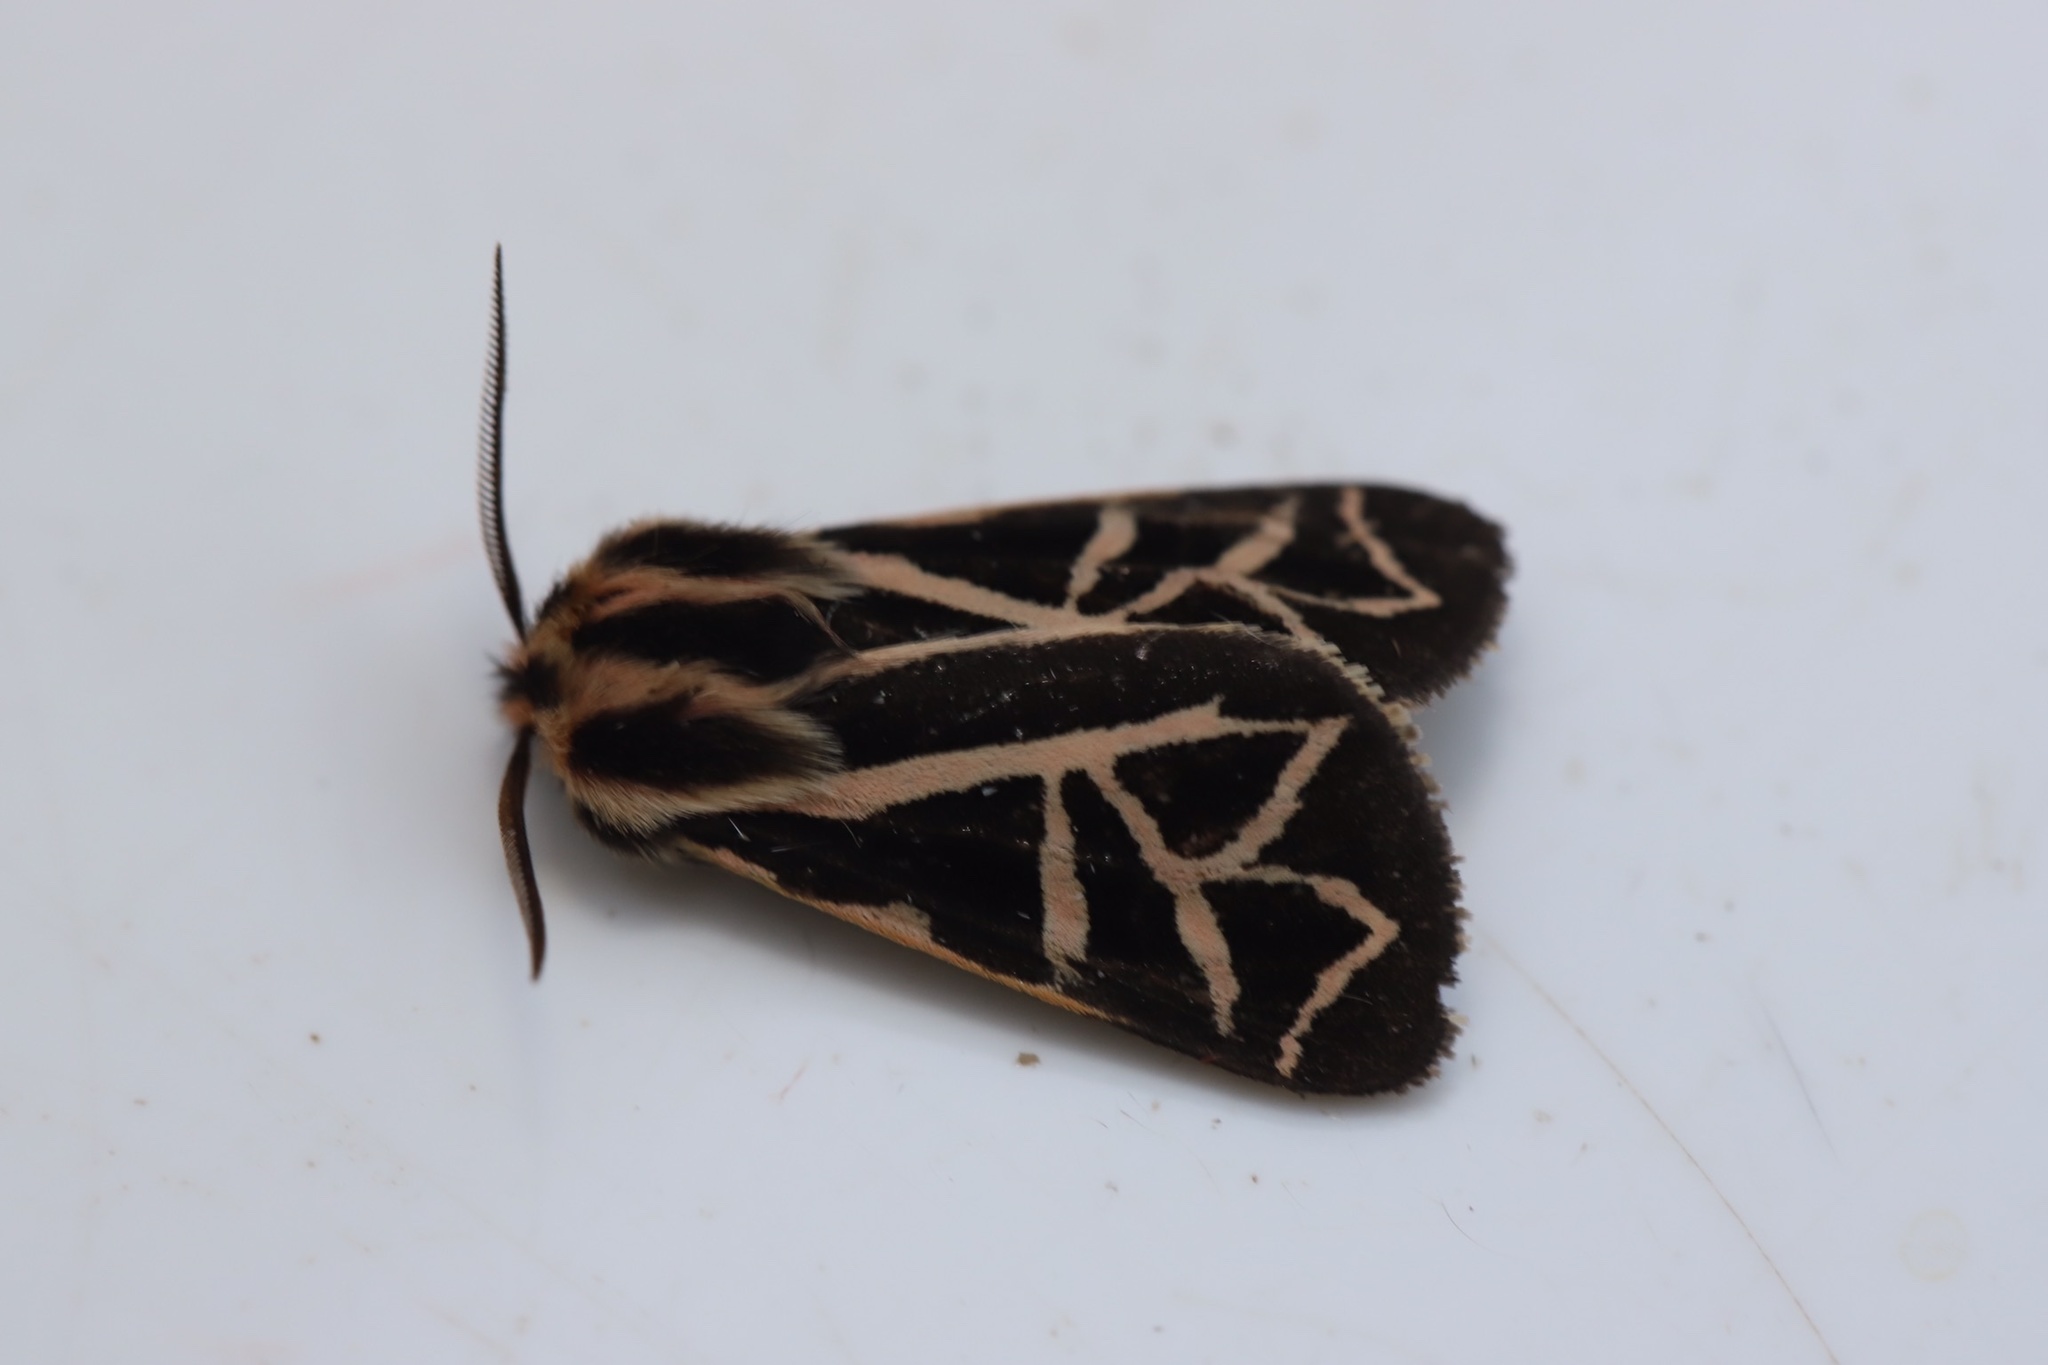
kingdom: Animalia
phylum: Arthropoda
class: Insecta
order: Lepidoptera
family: Erebidae
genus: Apantesis
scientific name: Apantesis
